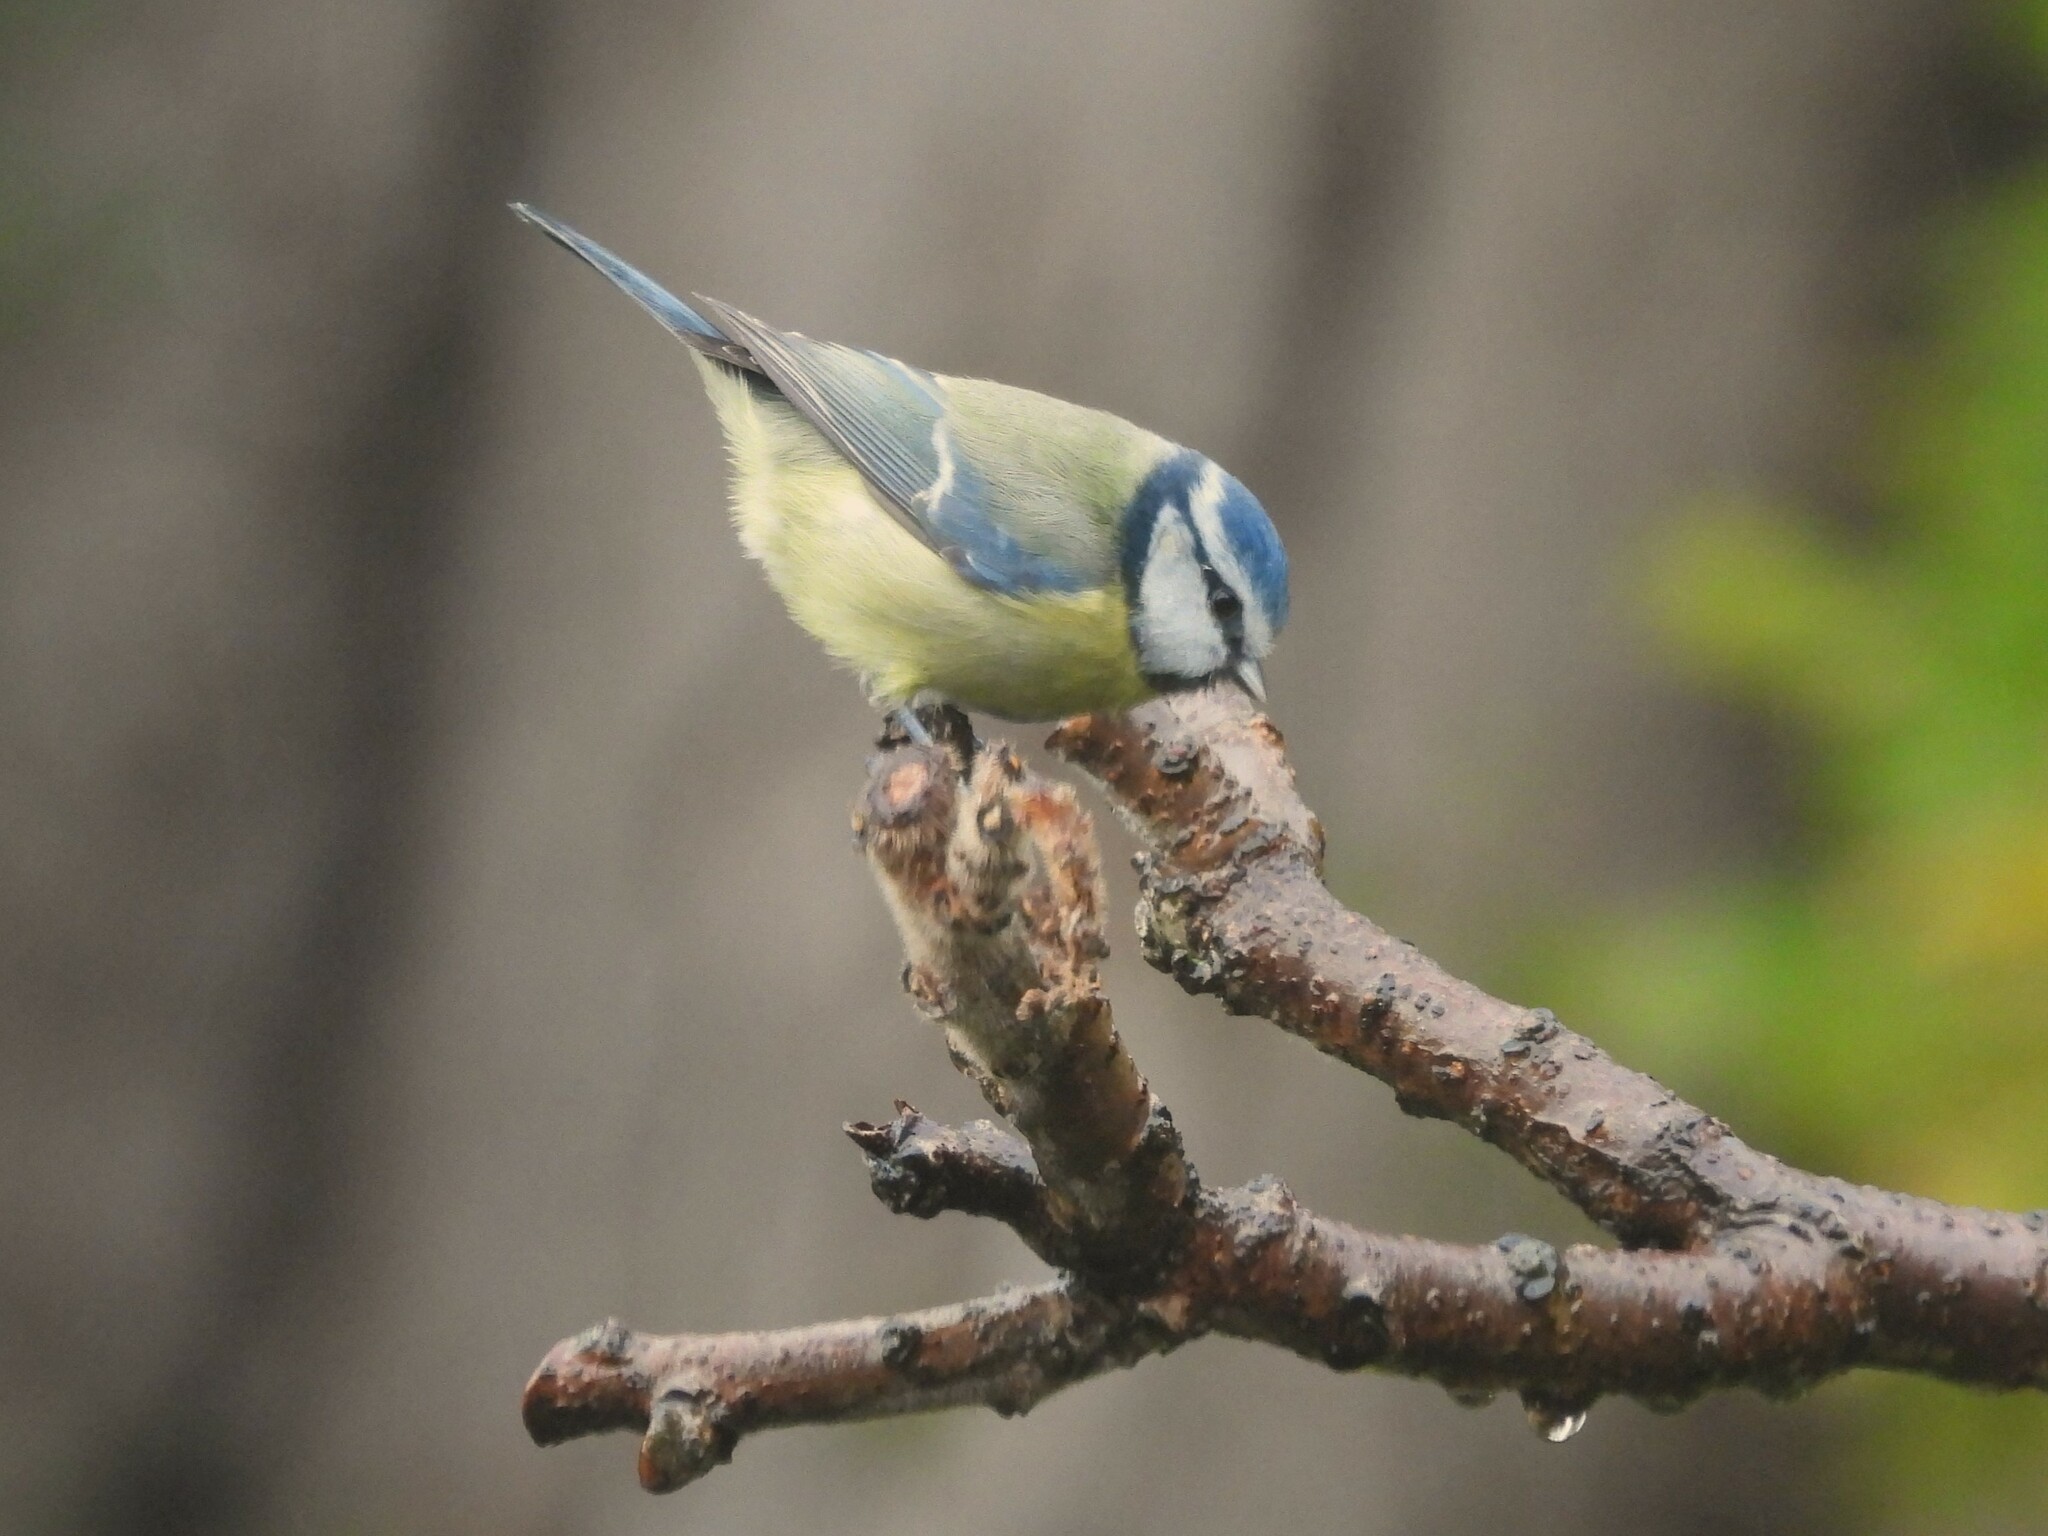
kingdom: Animalia
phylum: Chordata
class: Aves
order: Passeriformes
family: Paridae
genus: Cyanistes
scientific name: Cyanistes caeruleus
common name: Eurasian blue tit
